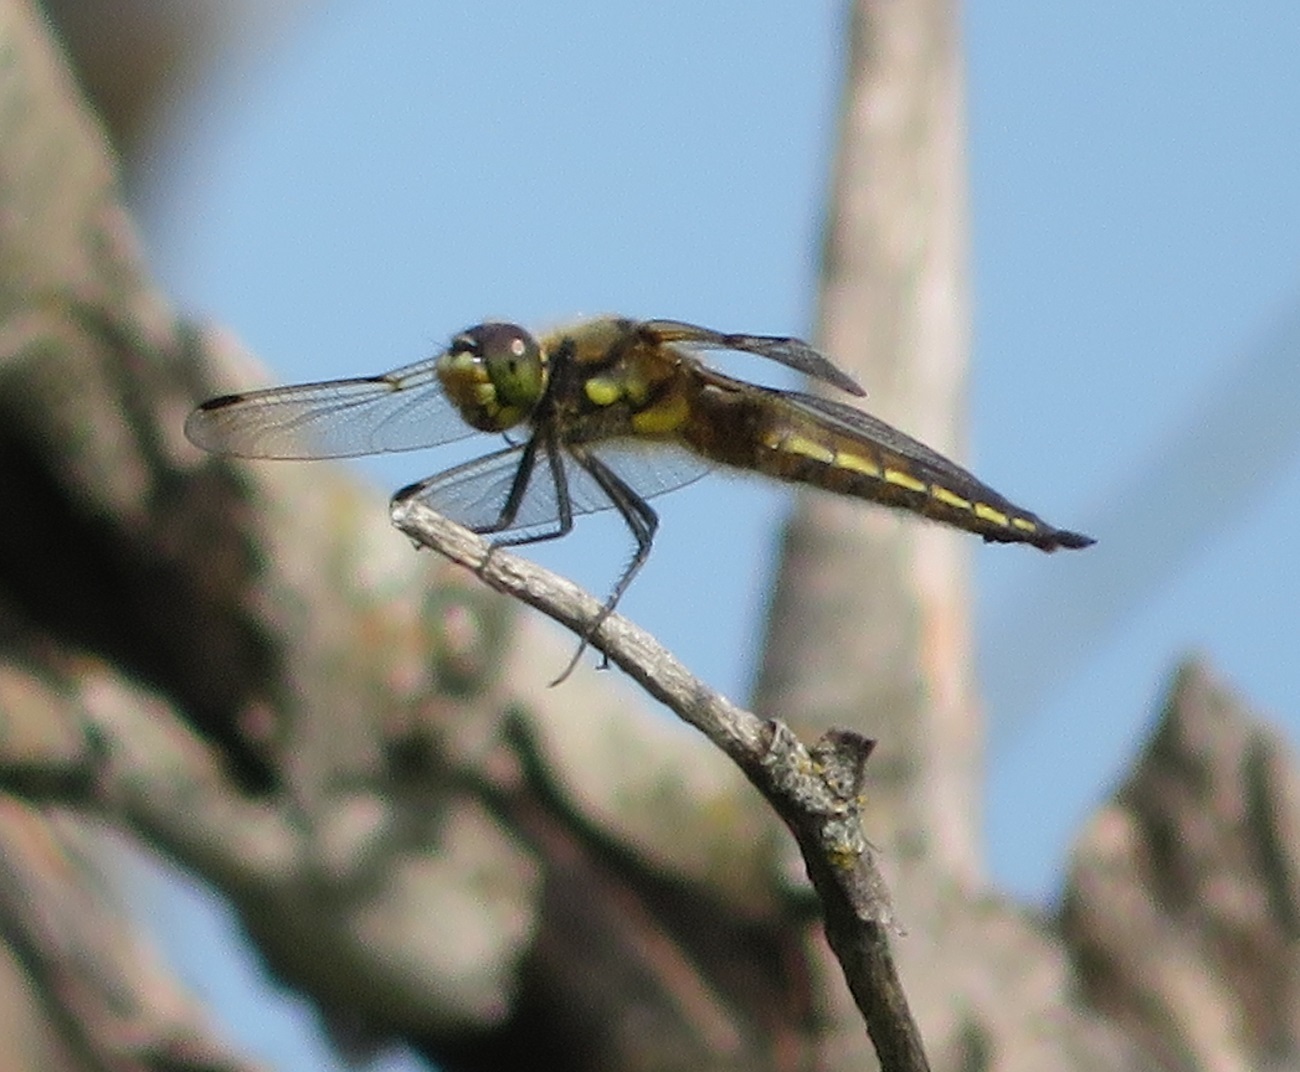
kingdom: Animalia
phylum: Arthropoda
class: Insecta
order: Odonata
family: Libellulidae
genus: Libellula
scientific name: Libellula quadrimaculata
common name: Four-spotted chaser
